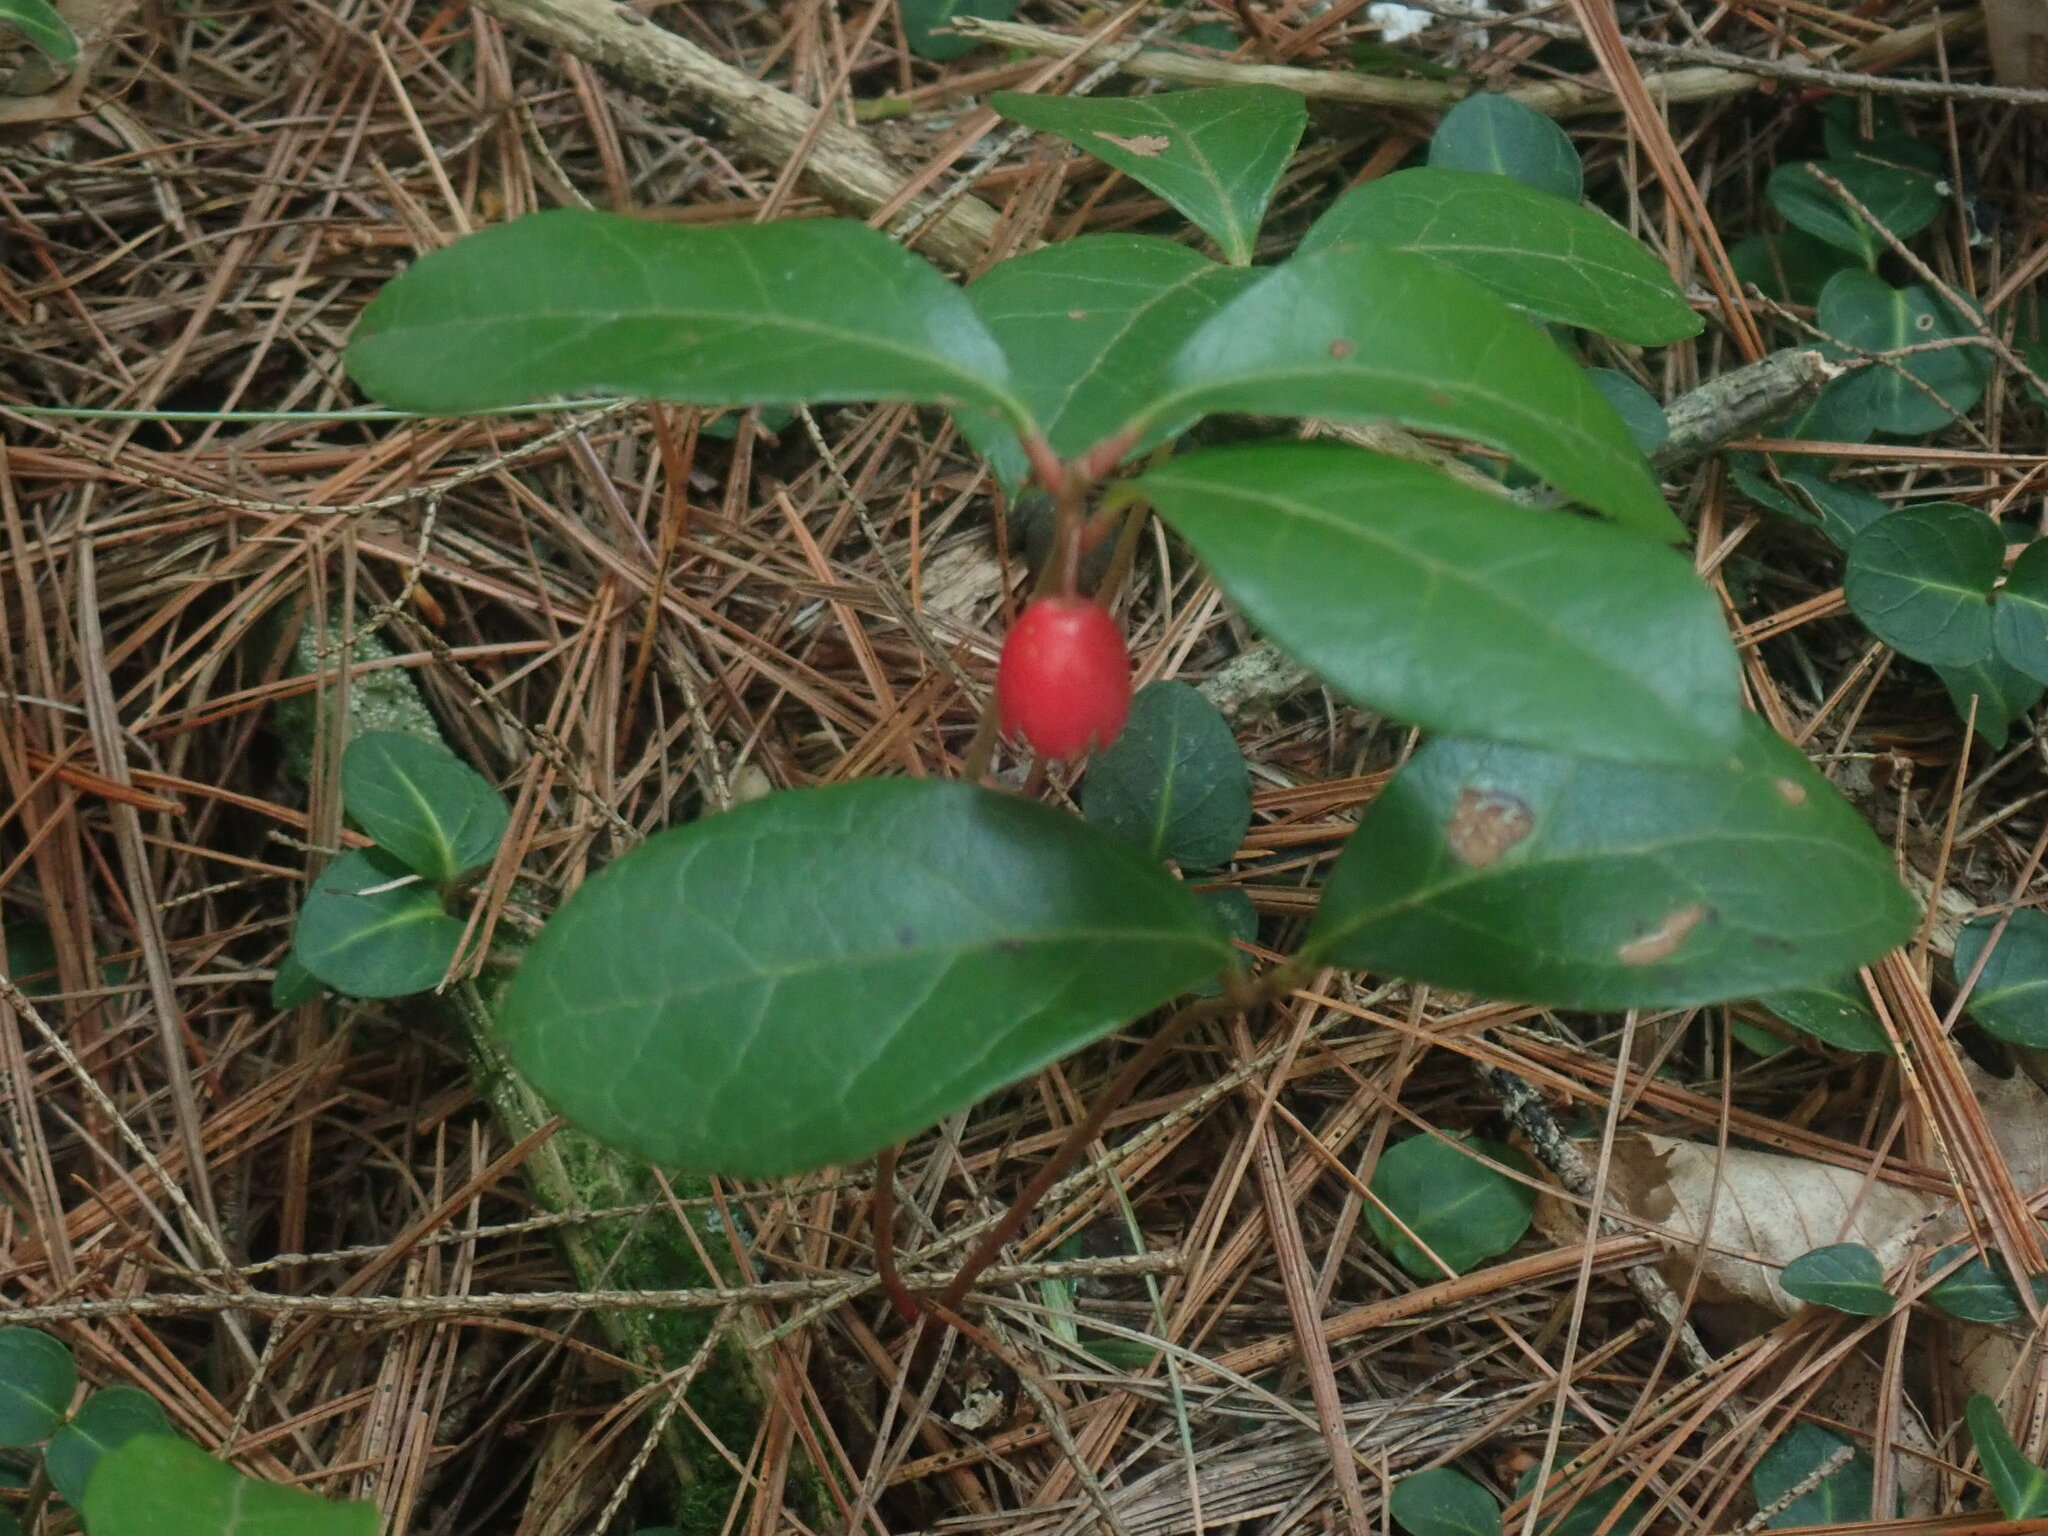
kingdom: Plantae
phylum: Tracheophyta
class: Magnoliopsida
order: Ericales
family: Ericaceae
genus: Gaultheria
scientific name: Gaultheria procumbens
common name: Checkerberry
